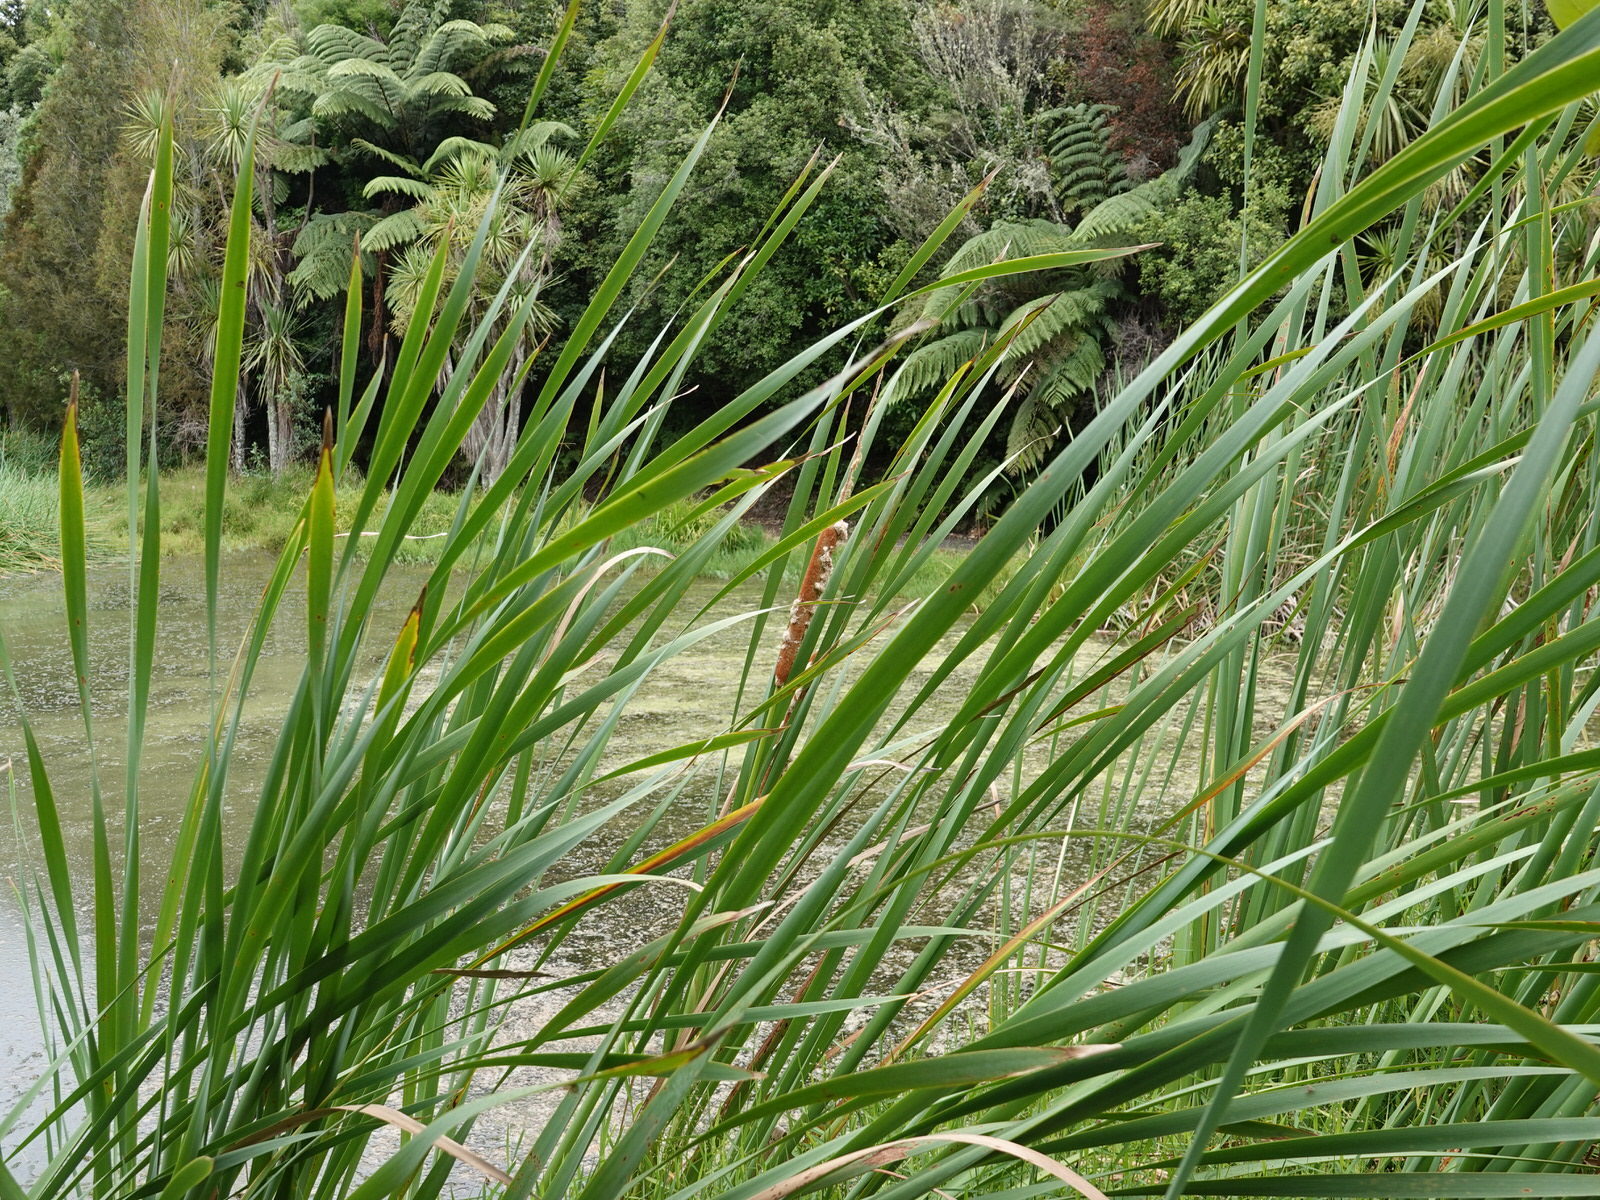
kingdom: Plantae
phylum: Tracheophyta
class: Liliopsida
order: Poales
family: Typhaceae
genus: Typha
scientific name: Typha orientalis
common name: Bullrush
